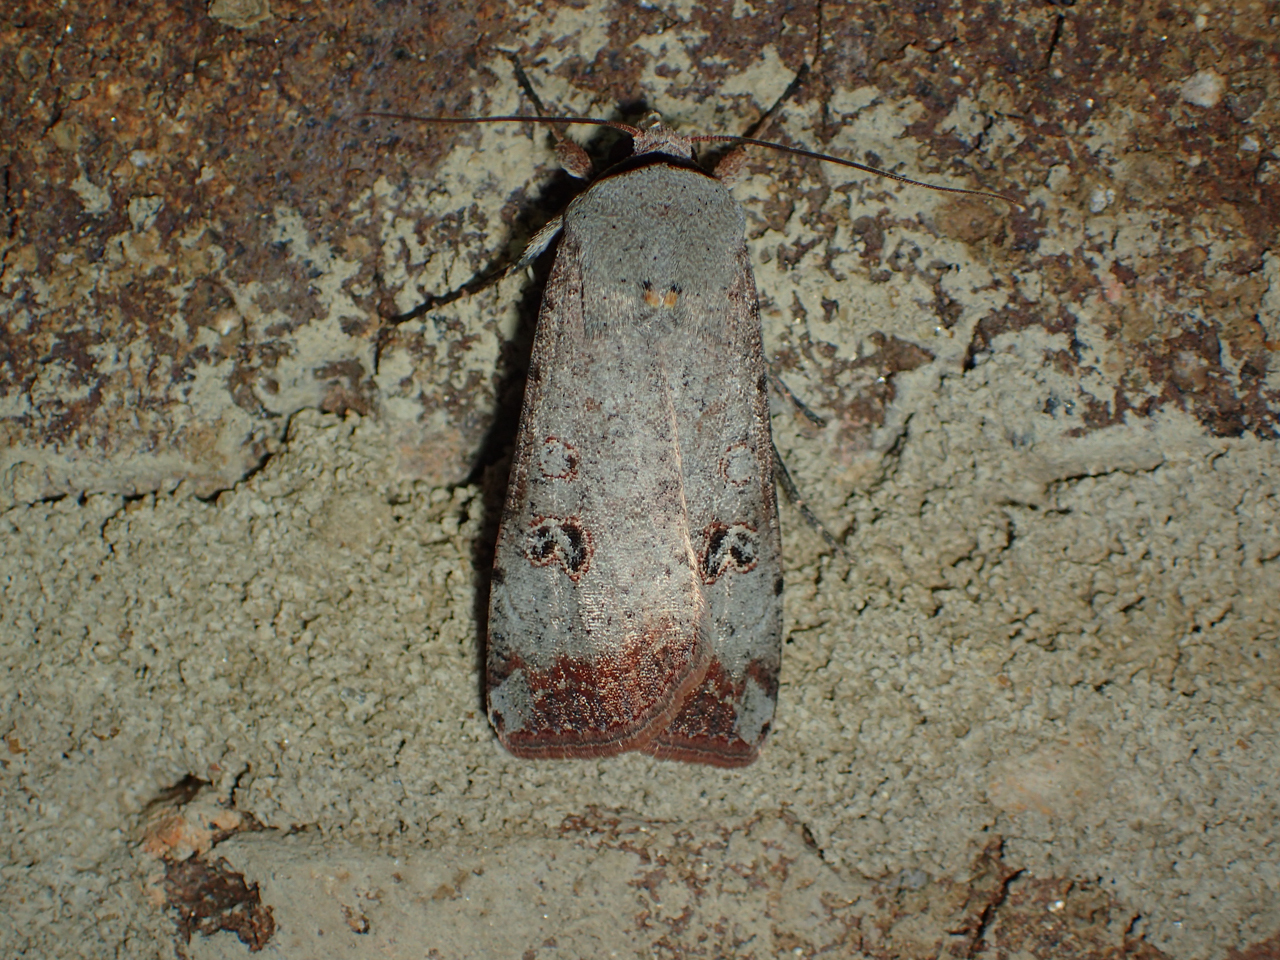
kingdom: Animalia
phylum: Arthropoda
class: Insecta
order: Lepidoptera
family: Noctuidae
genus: Anicla
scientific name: Anicla infecta
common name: Green cutworm
